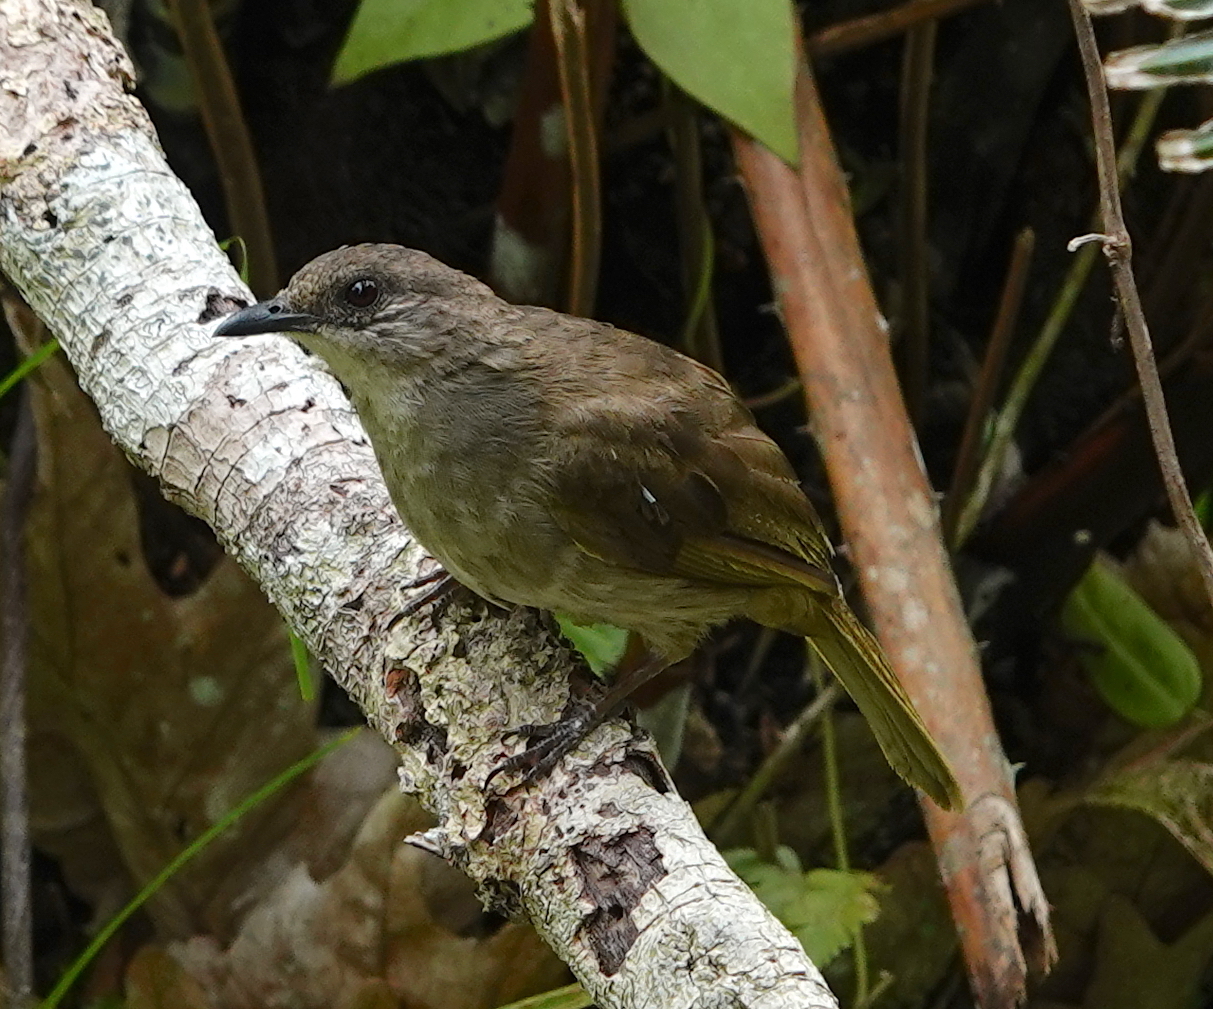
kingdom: Animalia
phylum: Chordata
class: Aves
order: Passeriformes
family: Pycnonotidae
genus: Pycnonotus
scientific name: Pycnonotus plumosus
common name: Olive-winged bulbul
